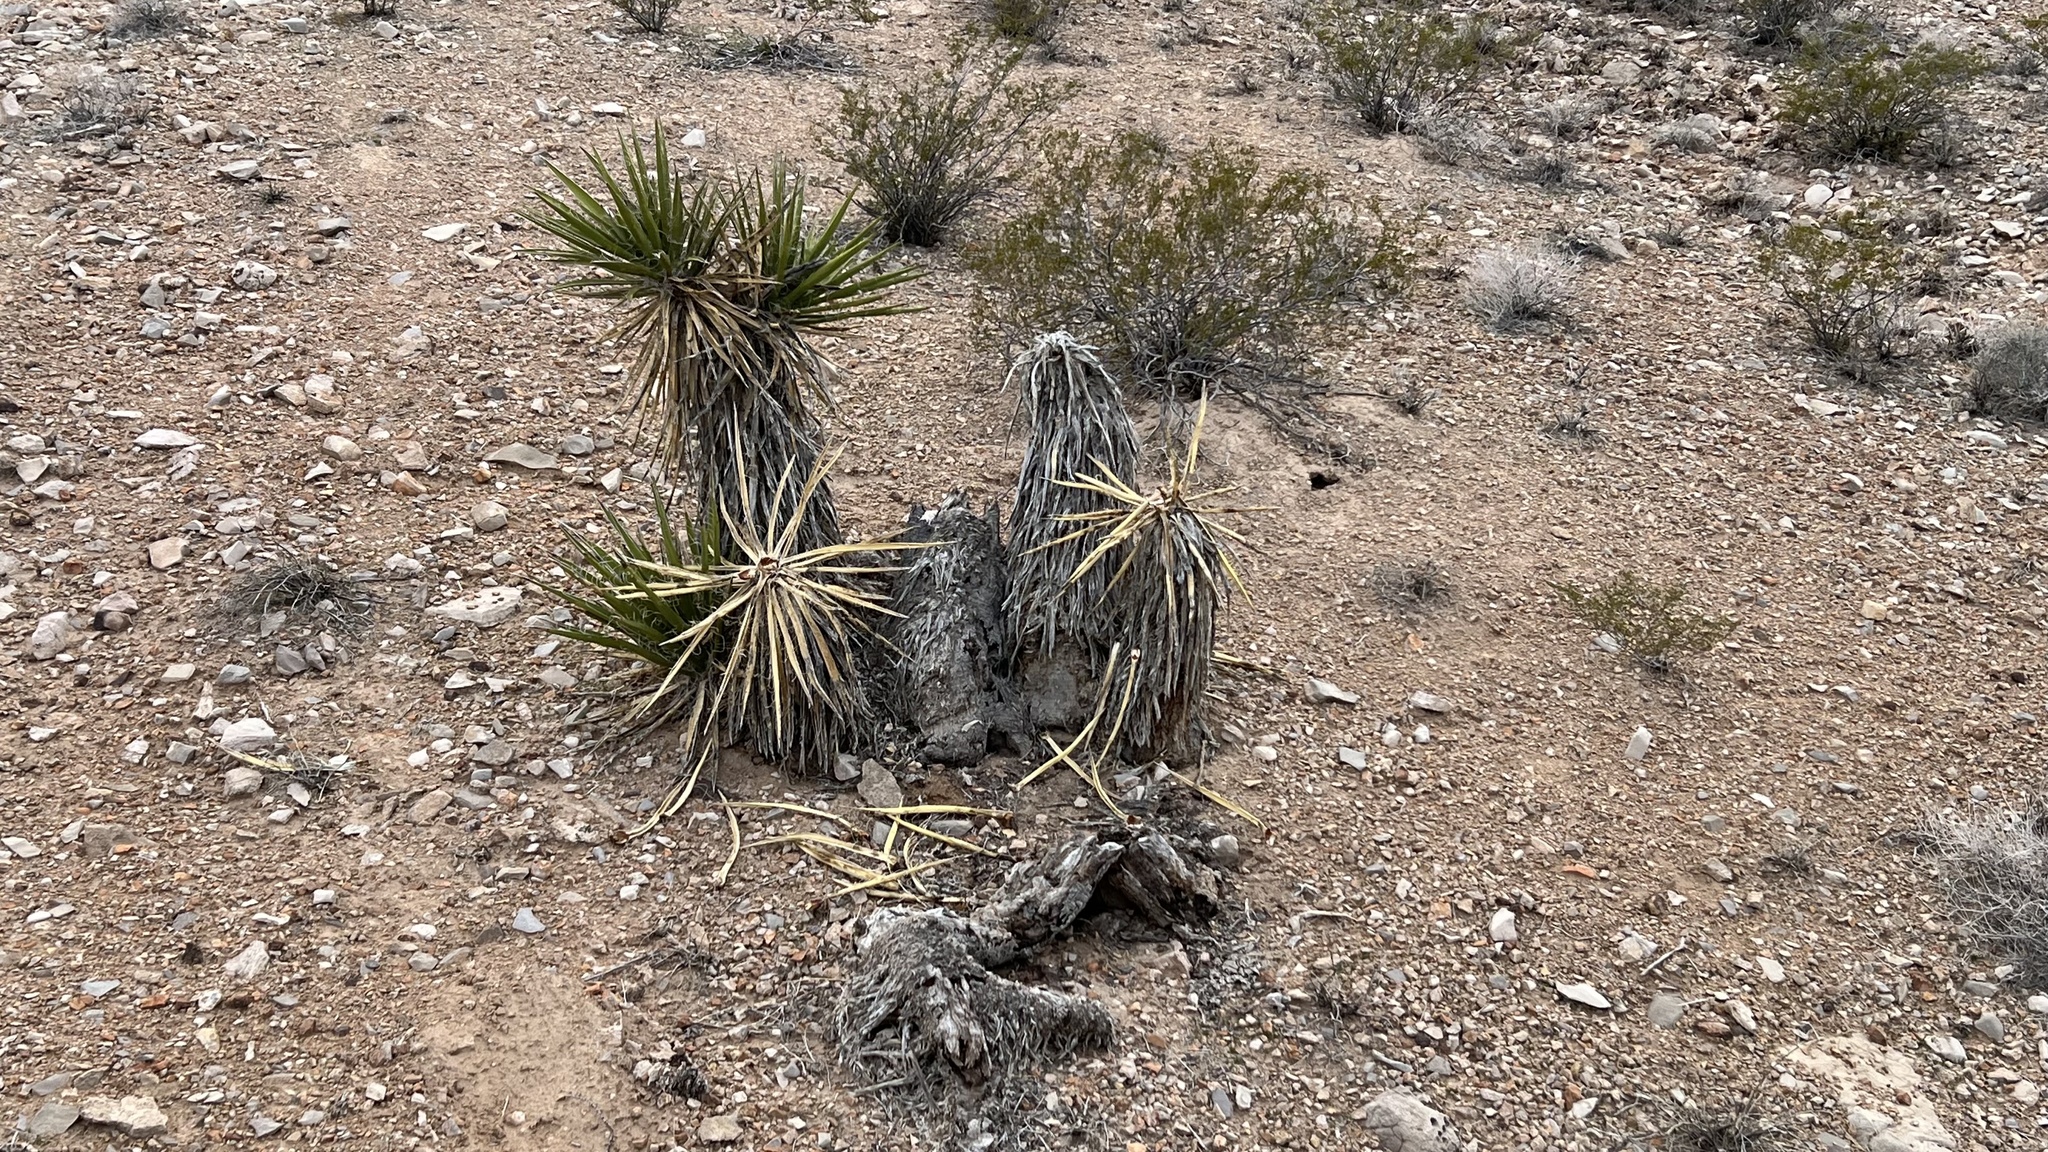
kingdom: Plantae
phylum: Tracheophyta
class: Liliopsida
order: Asparagales
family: Asparagaceae
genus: Yucca
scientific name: Yucca schidigera
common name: Mojave yucca
